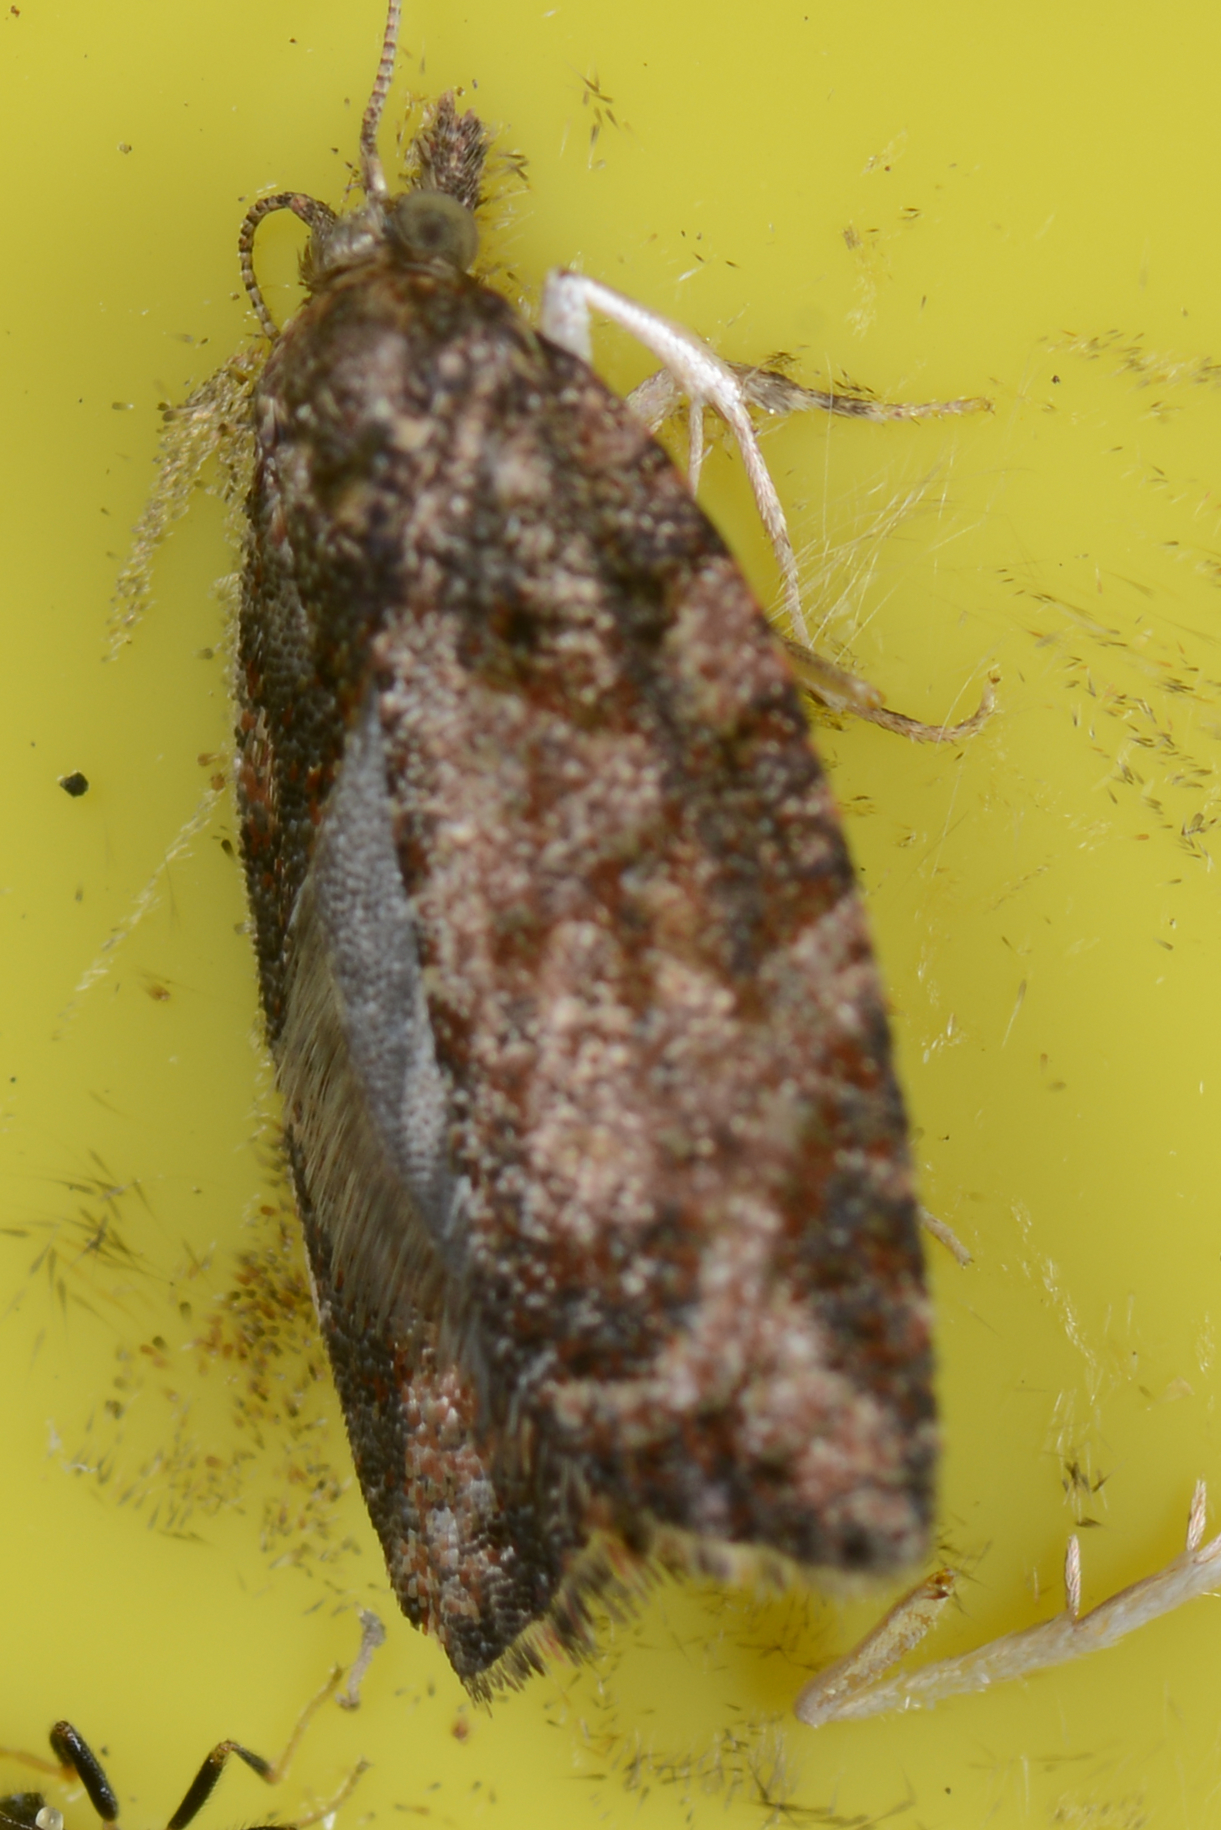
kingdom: Animalia
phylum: Arthropoda
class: Insecta
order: Lepidoptera
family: Tortricidae
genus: Capua
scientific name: Capua intractana
